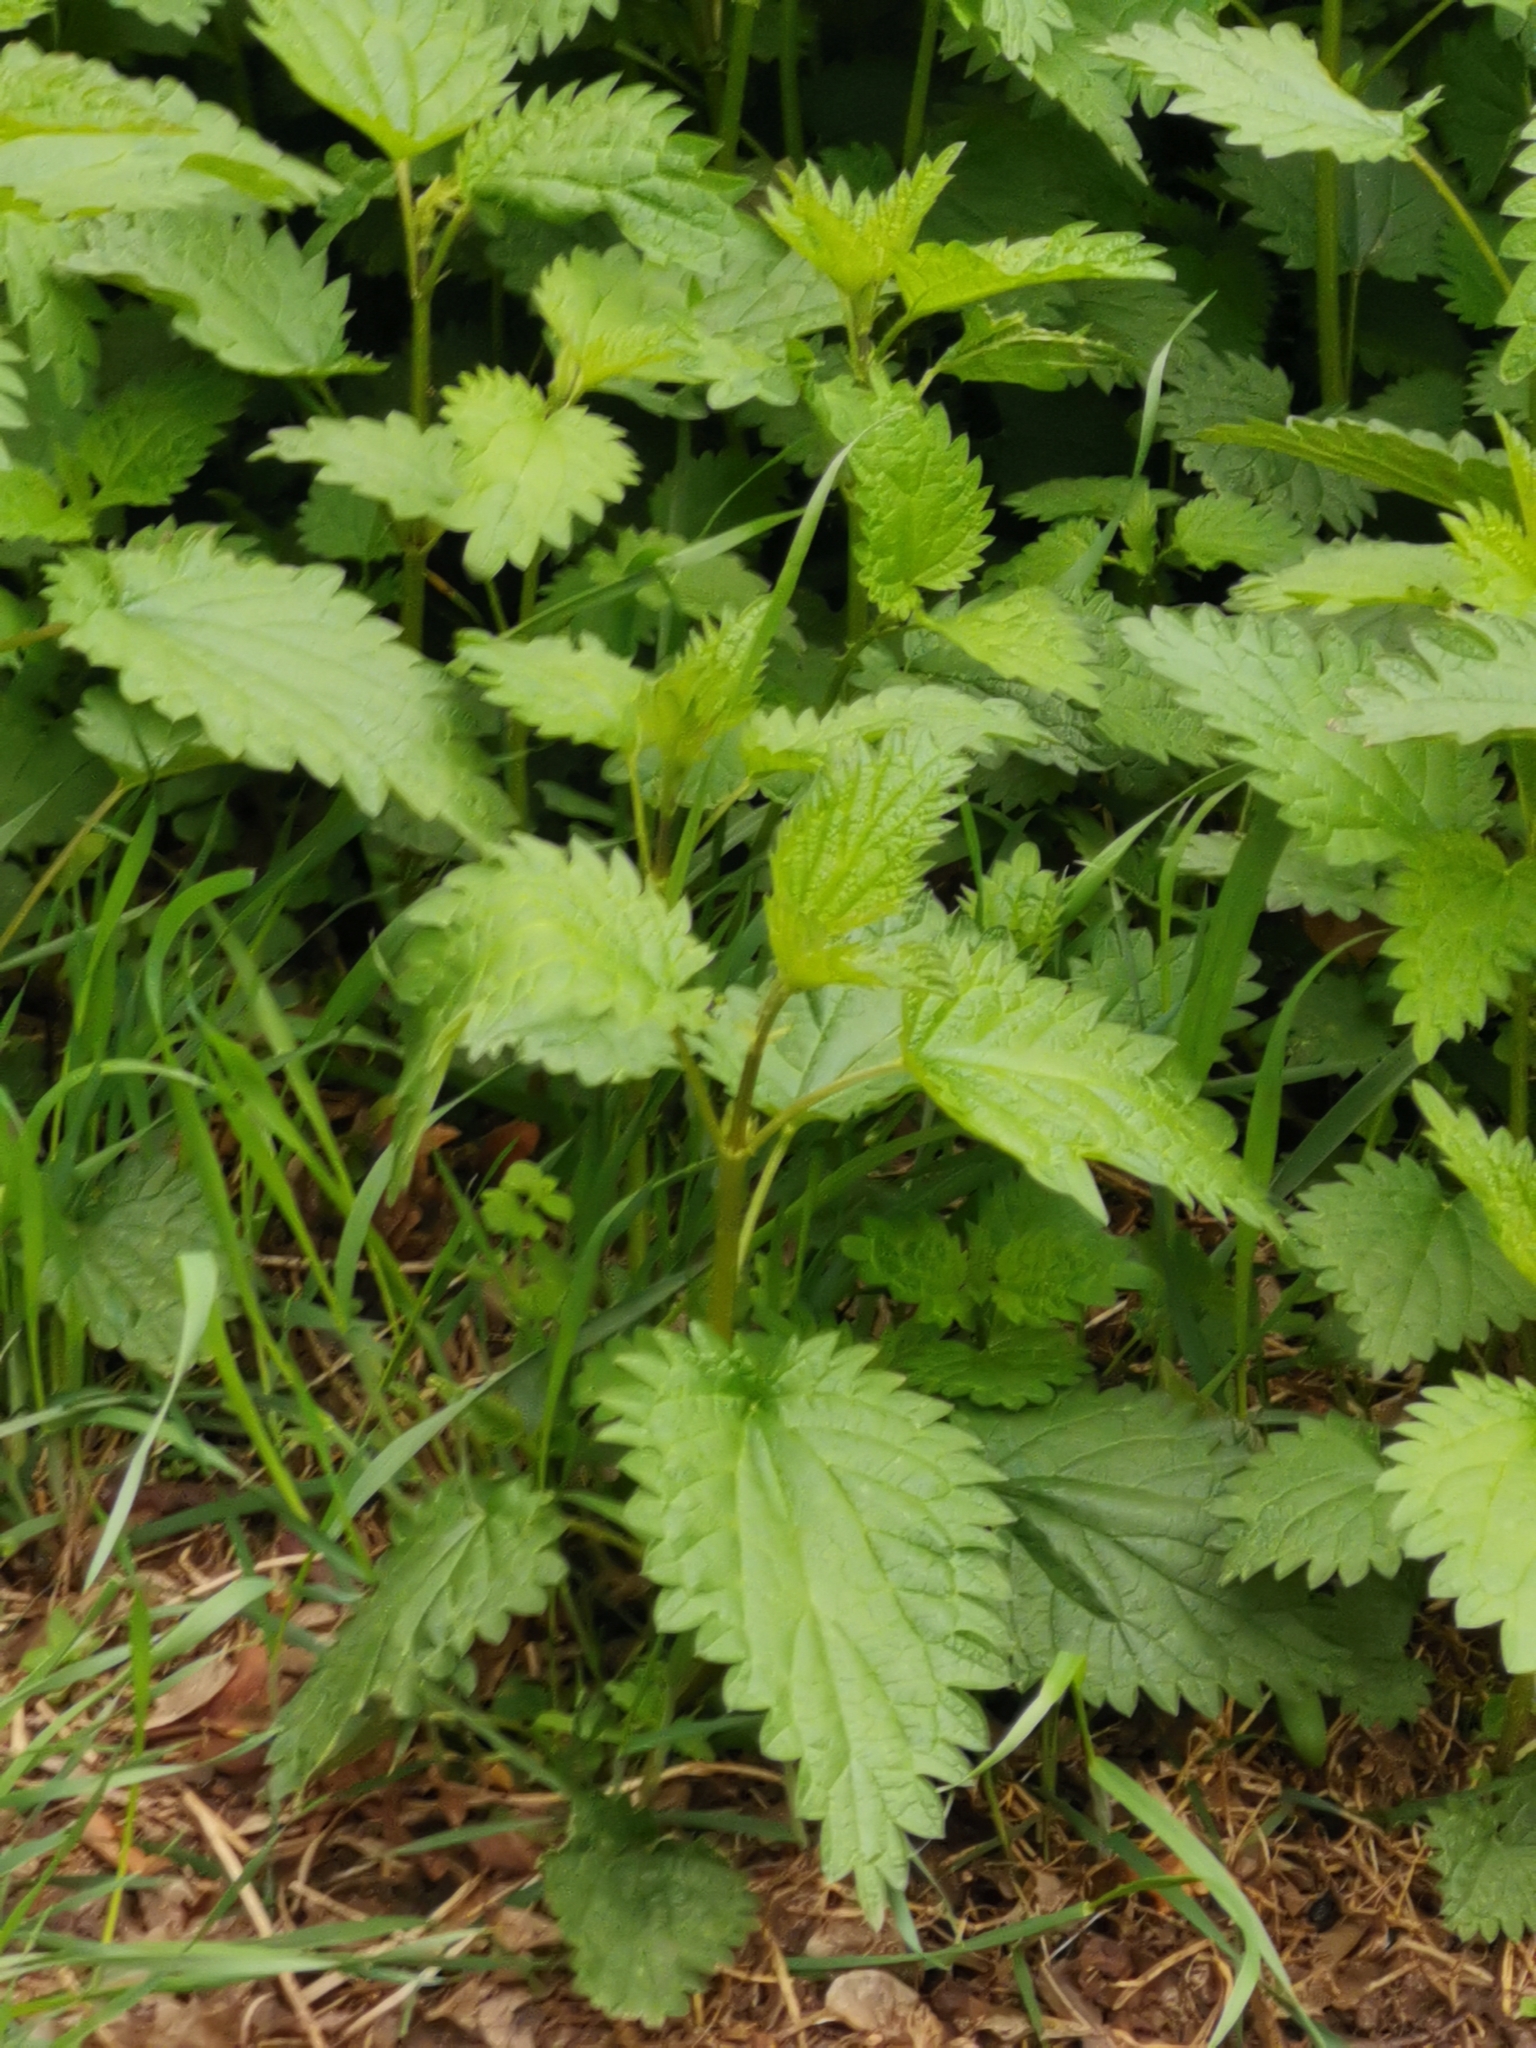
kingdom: Plantae
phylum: Tracheophyta
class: Magnoliopsida
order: Rosales
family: Urticaceae
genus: Urtica
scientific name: Urtica dioica
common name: Common nettle
